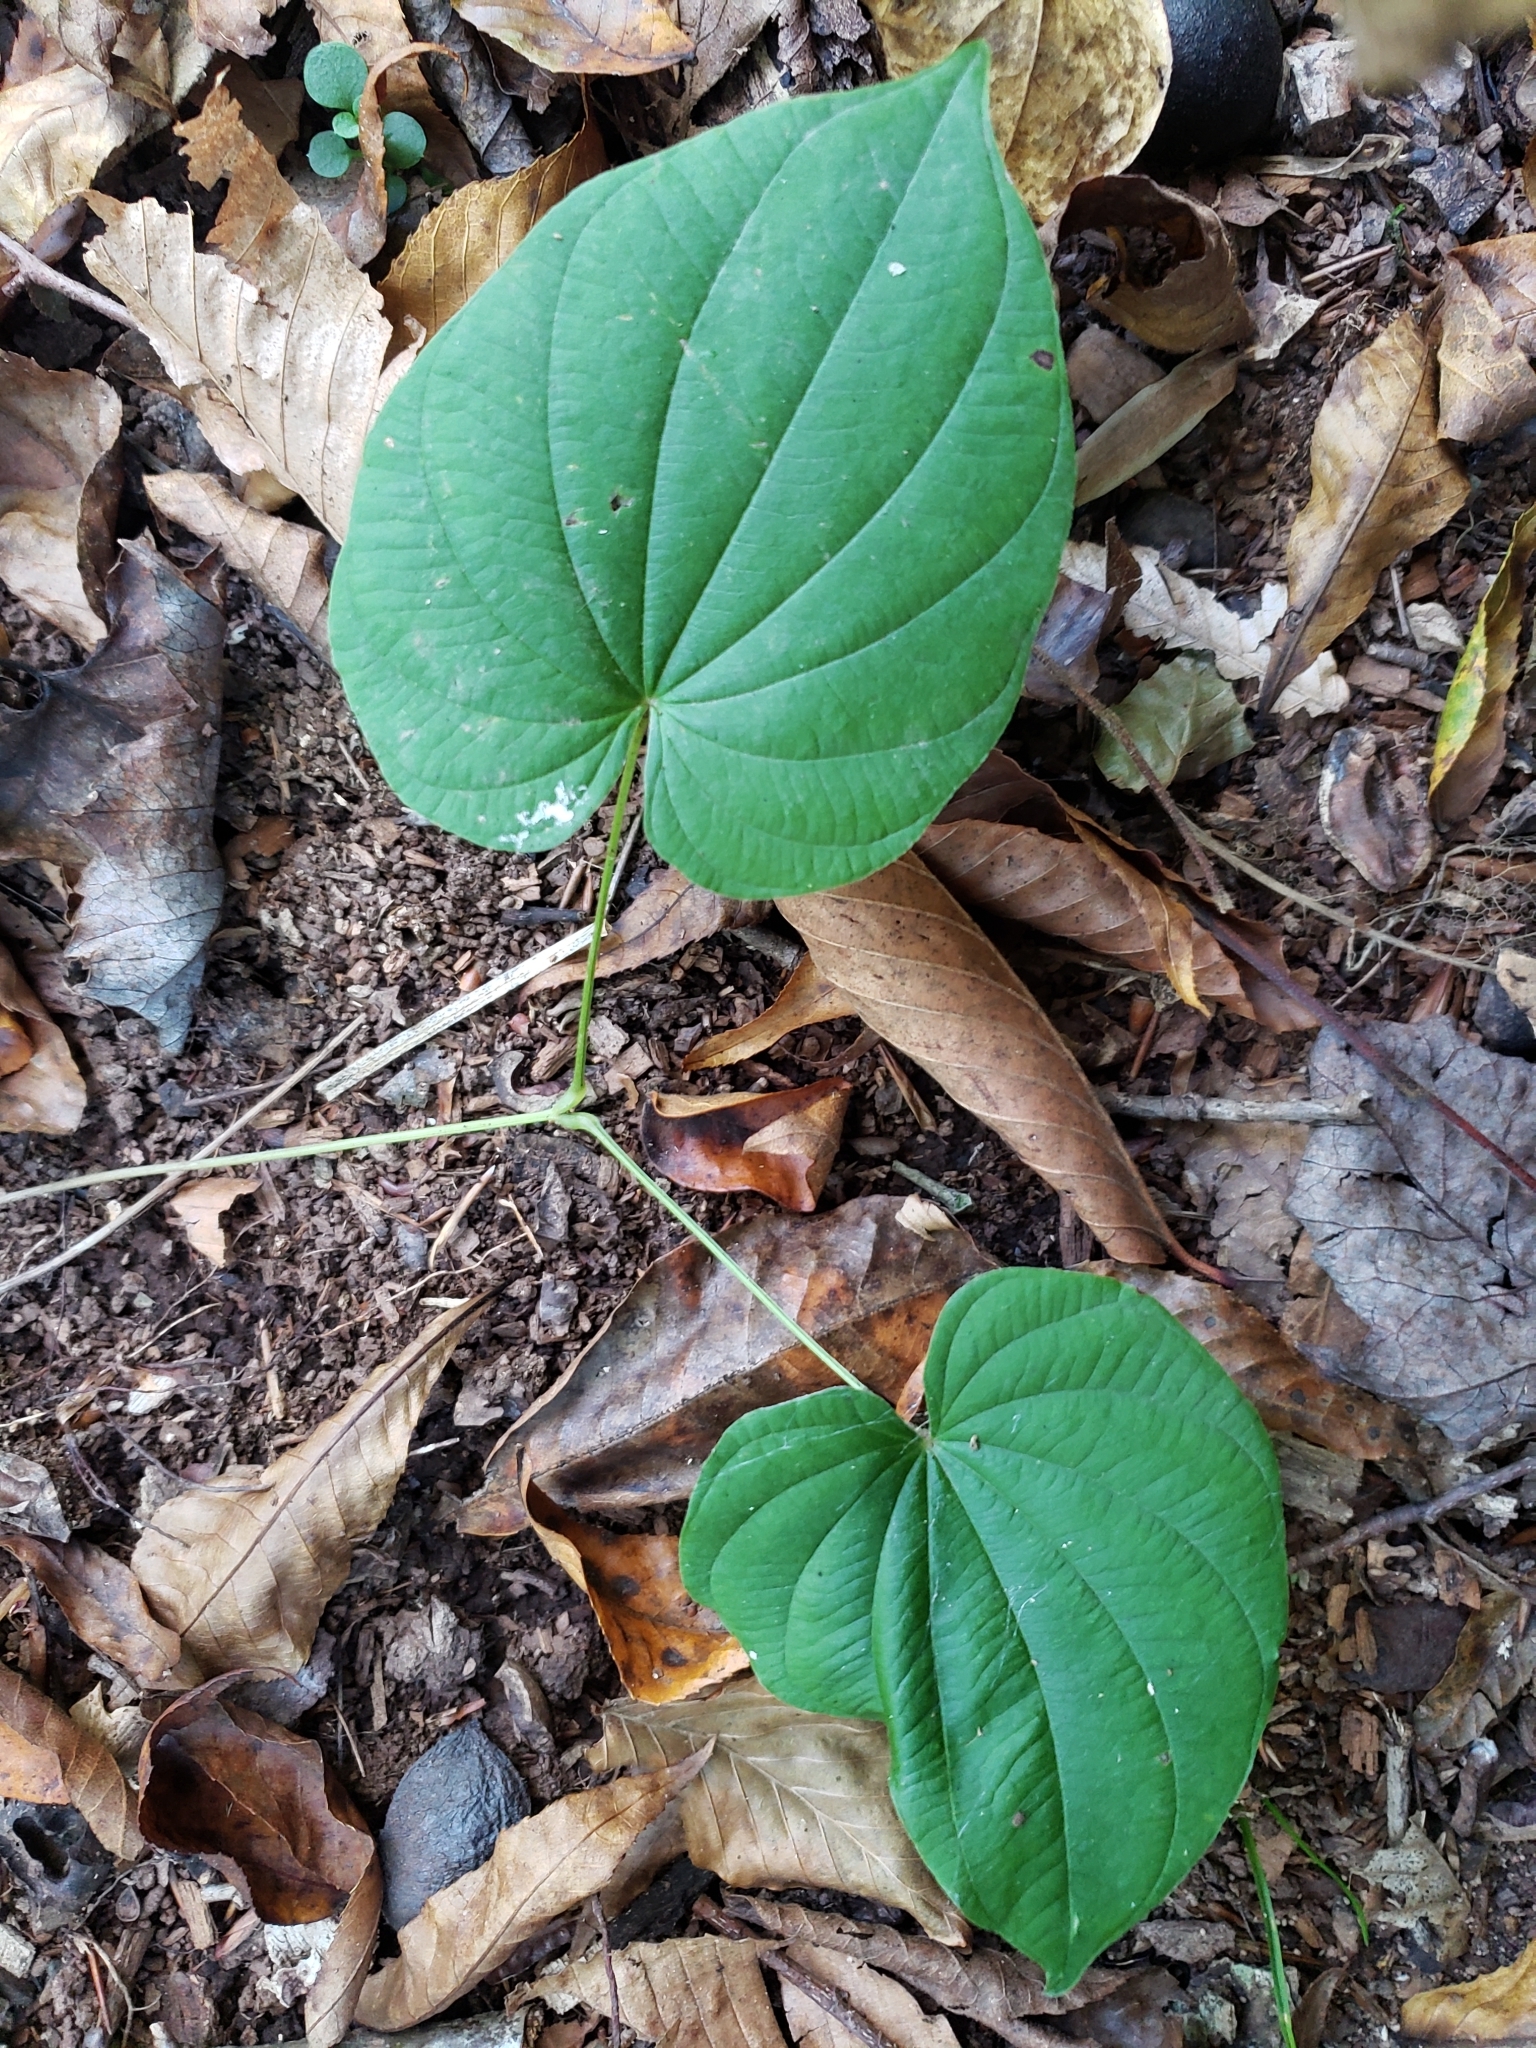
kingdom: Plantae
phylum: Tracheophyta
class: Liliopsida
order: Dioscoreales
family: Dioscoreaceae
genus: Dioscorea
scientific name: Dioscorea villosa
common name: Wild yam
